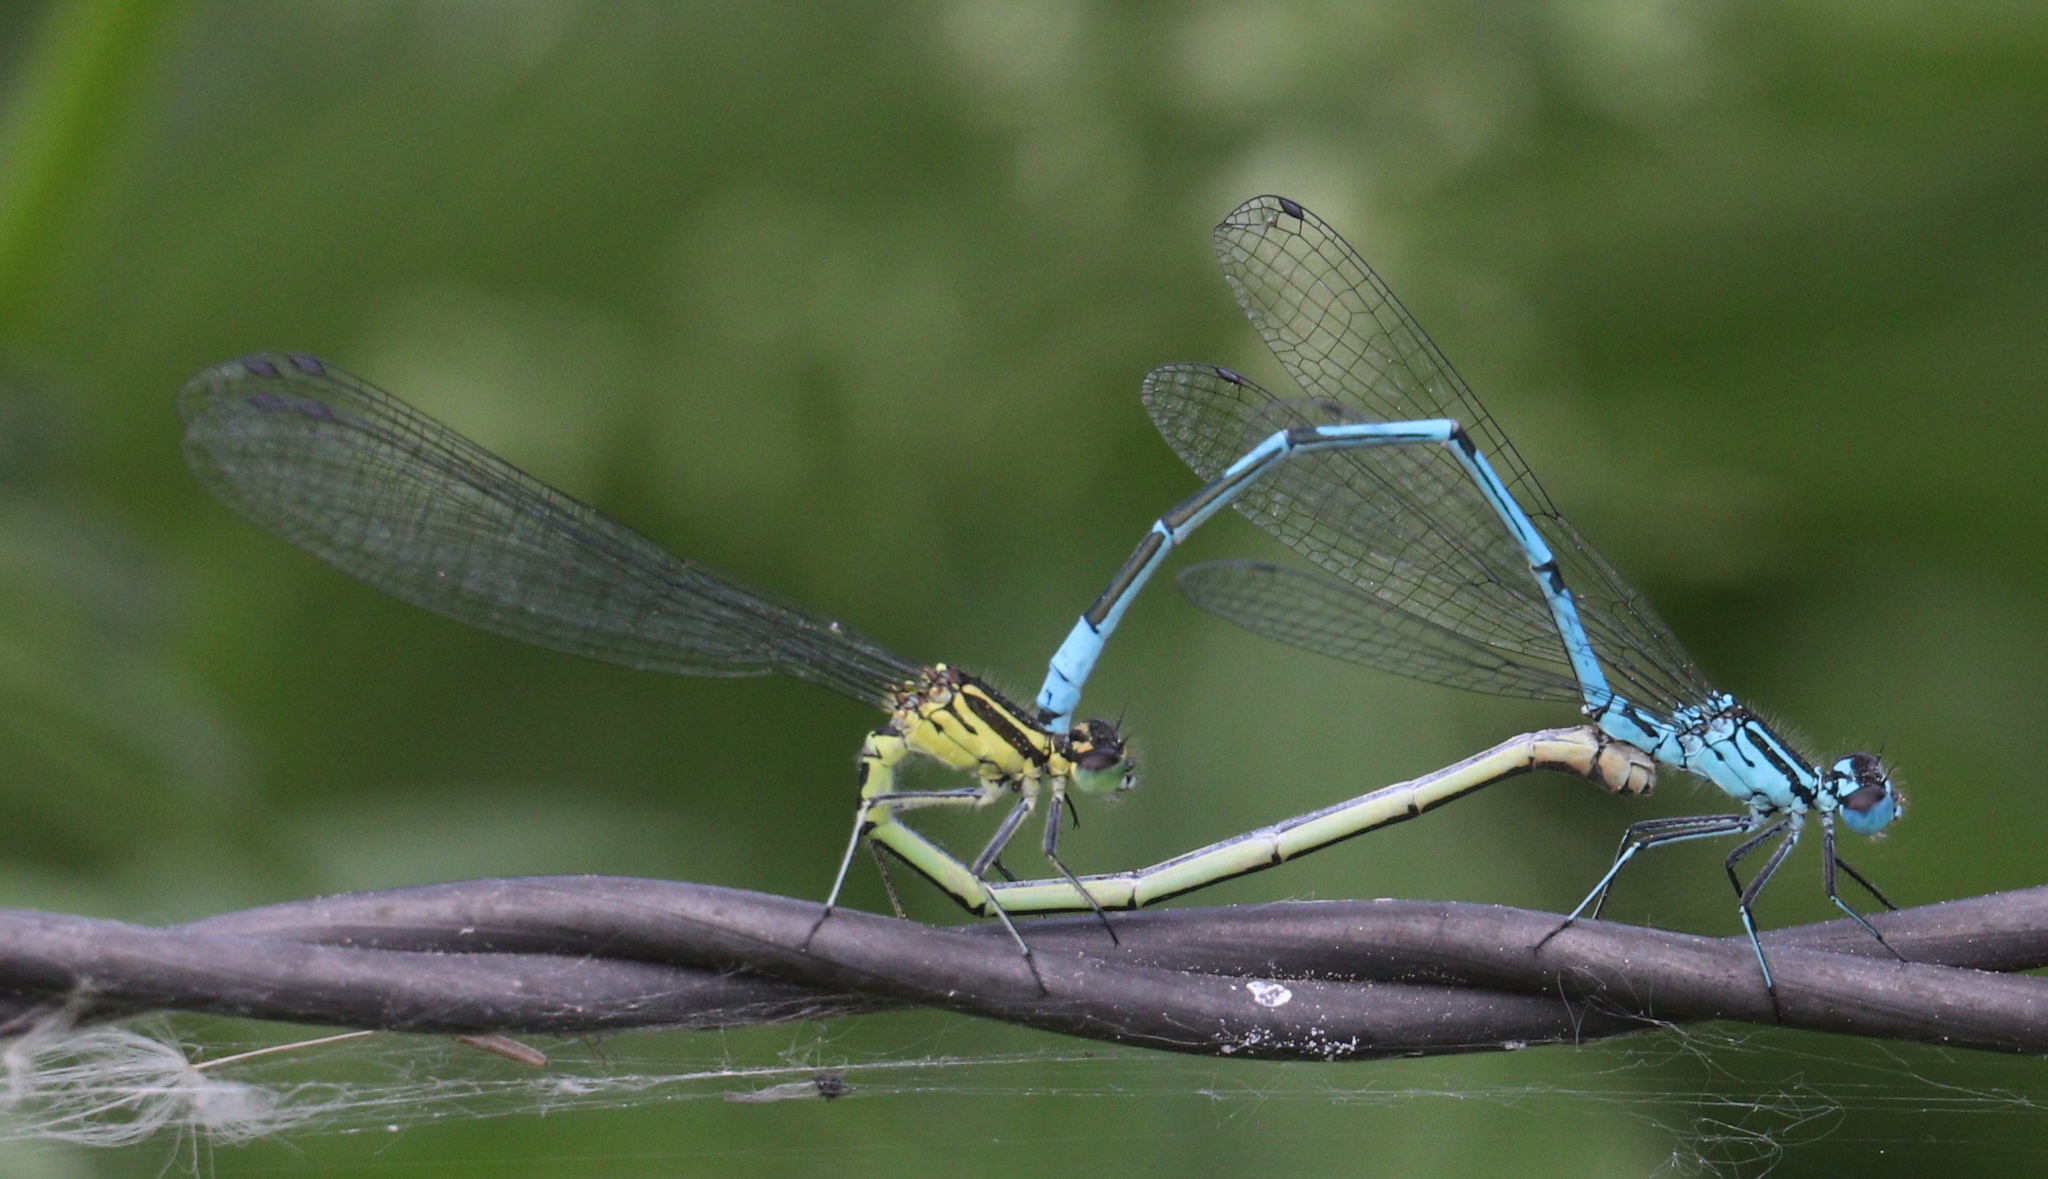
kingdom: Animalia
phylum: Arthropoda
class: Insecta
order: Odonata
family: Coenagrionidae
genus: Coenagrion
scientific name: Coenagrion puella
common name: Azure damselfly
